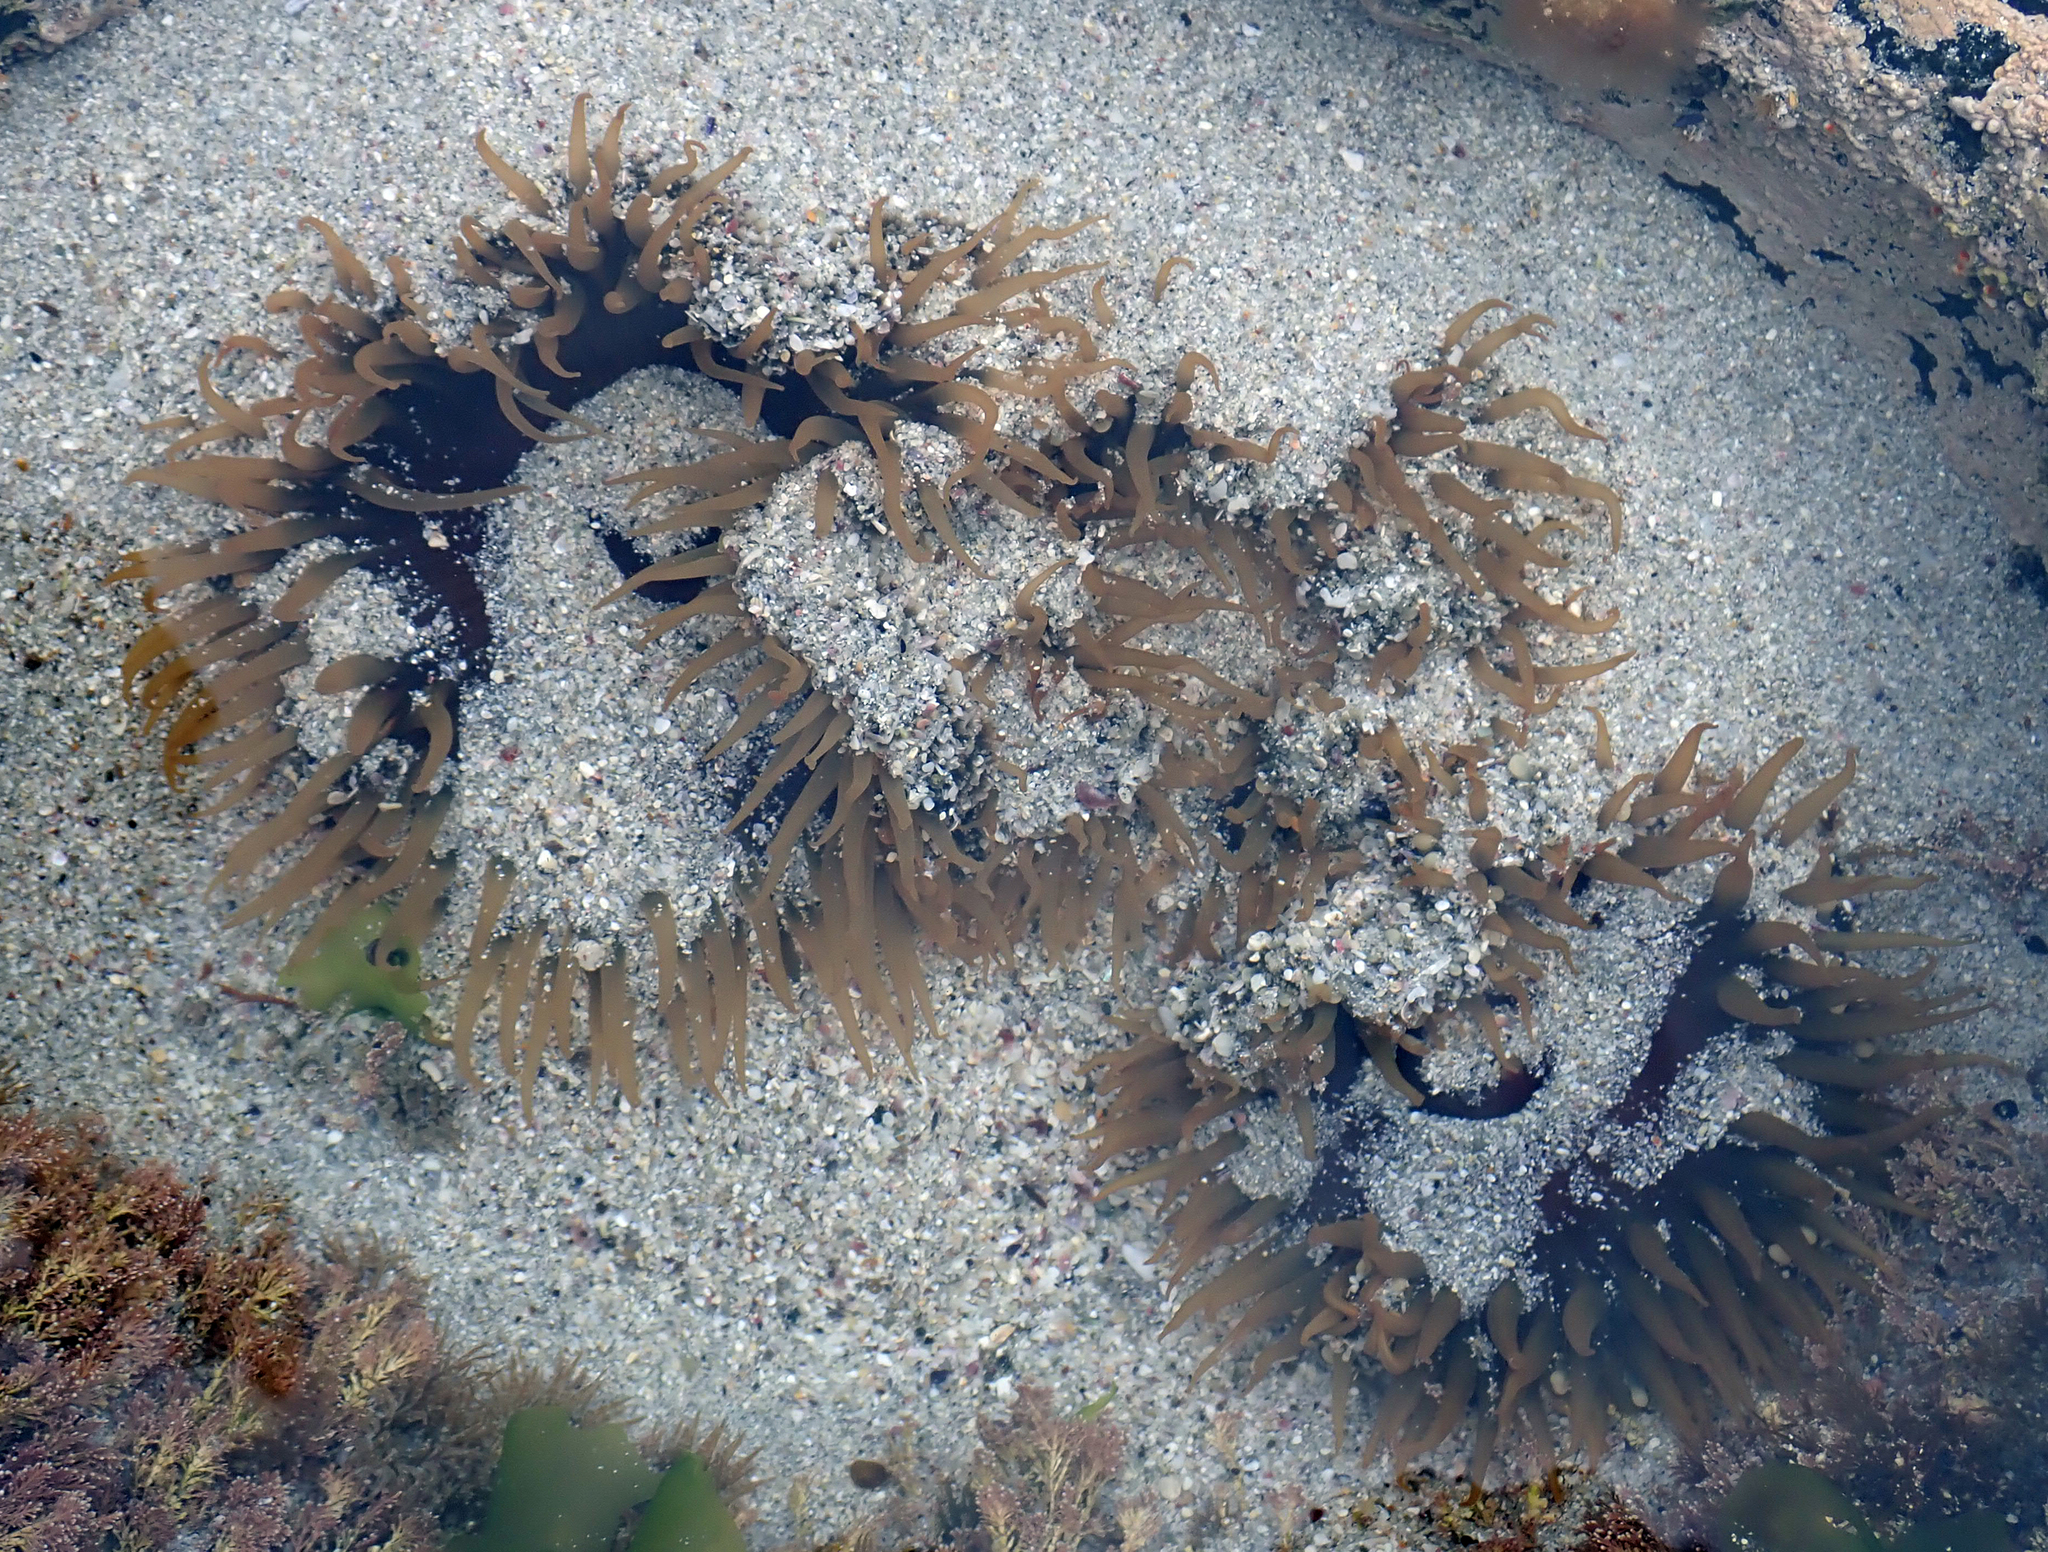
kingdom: Animalia
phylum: Cnidaria
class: Anthozoa
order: Actiniaria
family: Actiniidae
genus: Oulactis
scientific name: Oulactis magna
